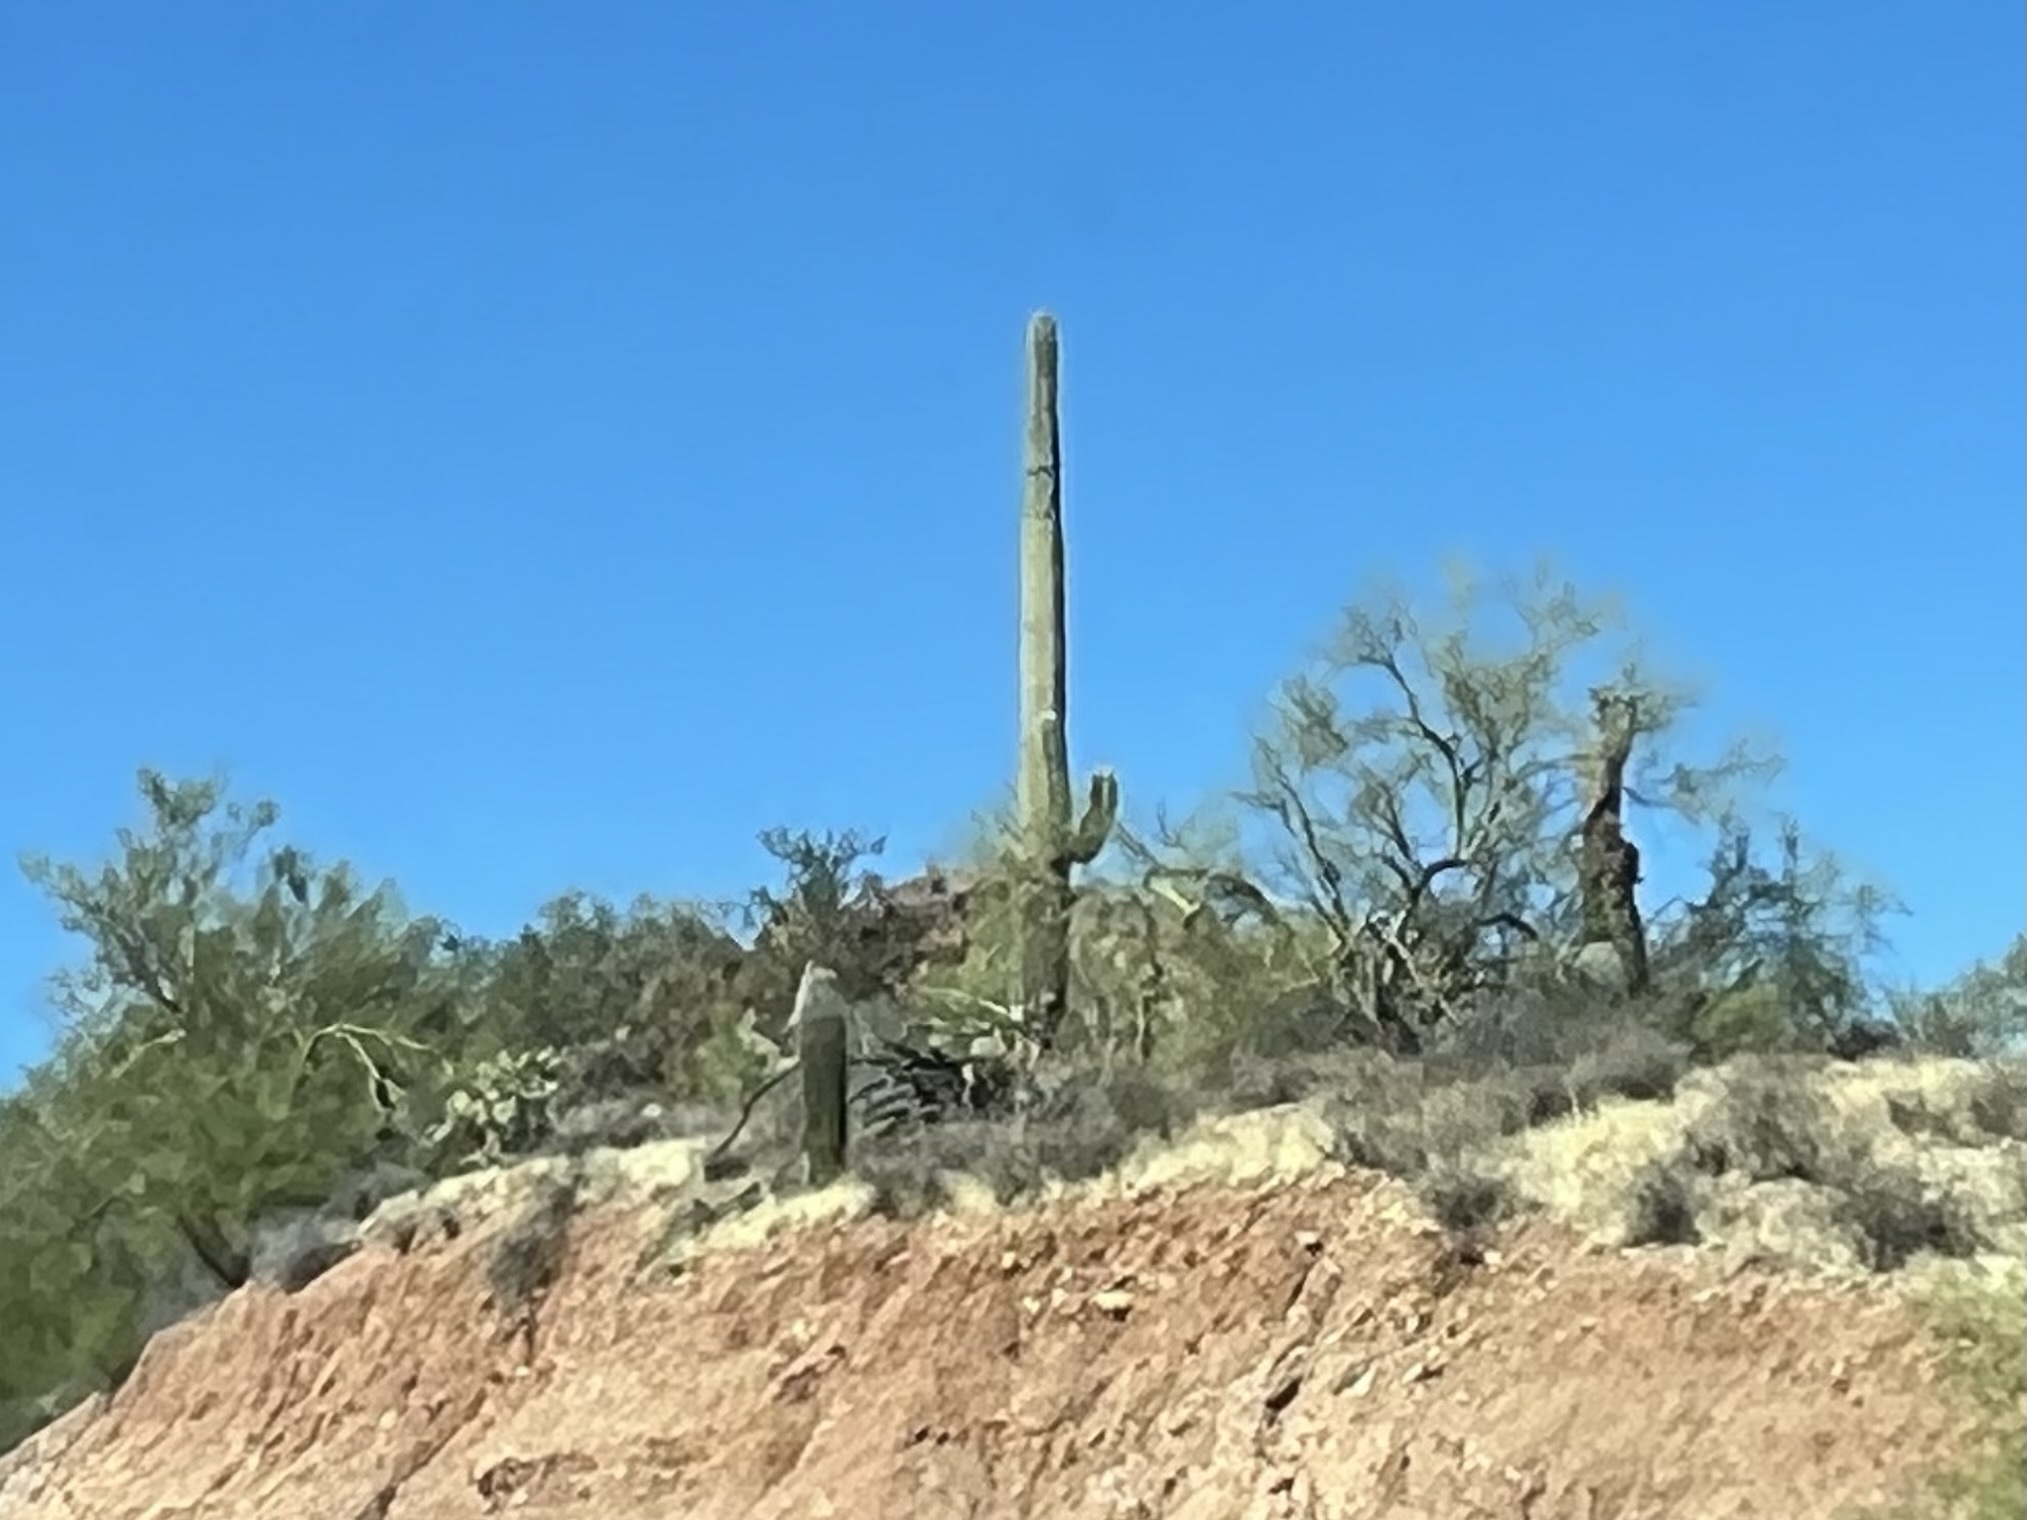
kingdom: Plantae
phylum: Tracheophyta
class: Magnoliopsida
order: Caryophyllales
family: Cactaceae
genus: Carnegiea
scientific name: Carnegiea gigantea
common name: Saguaro
